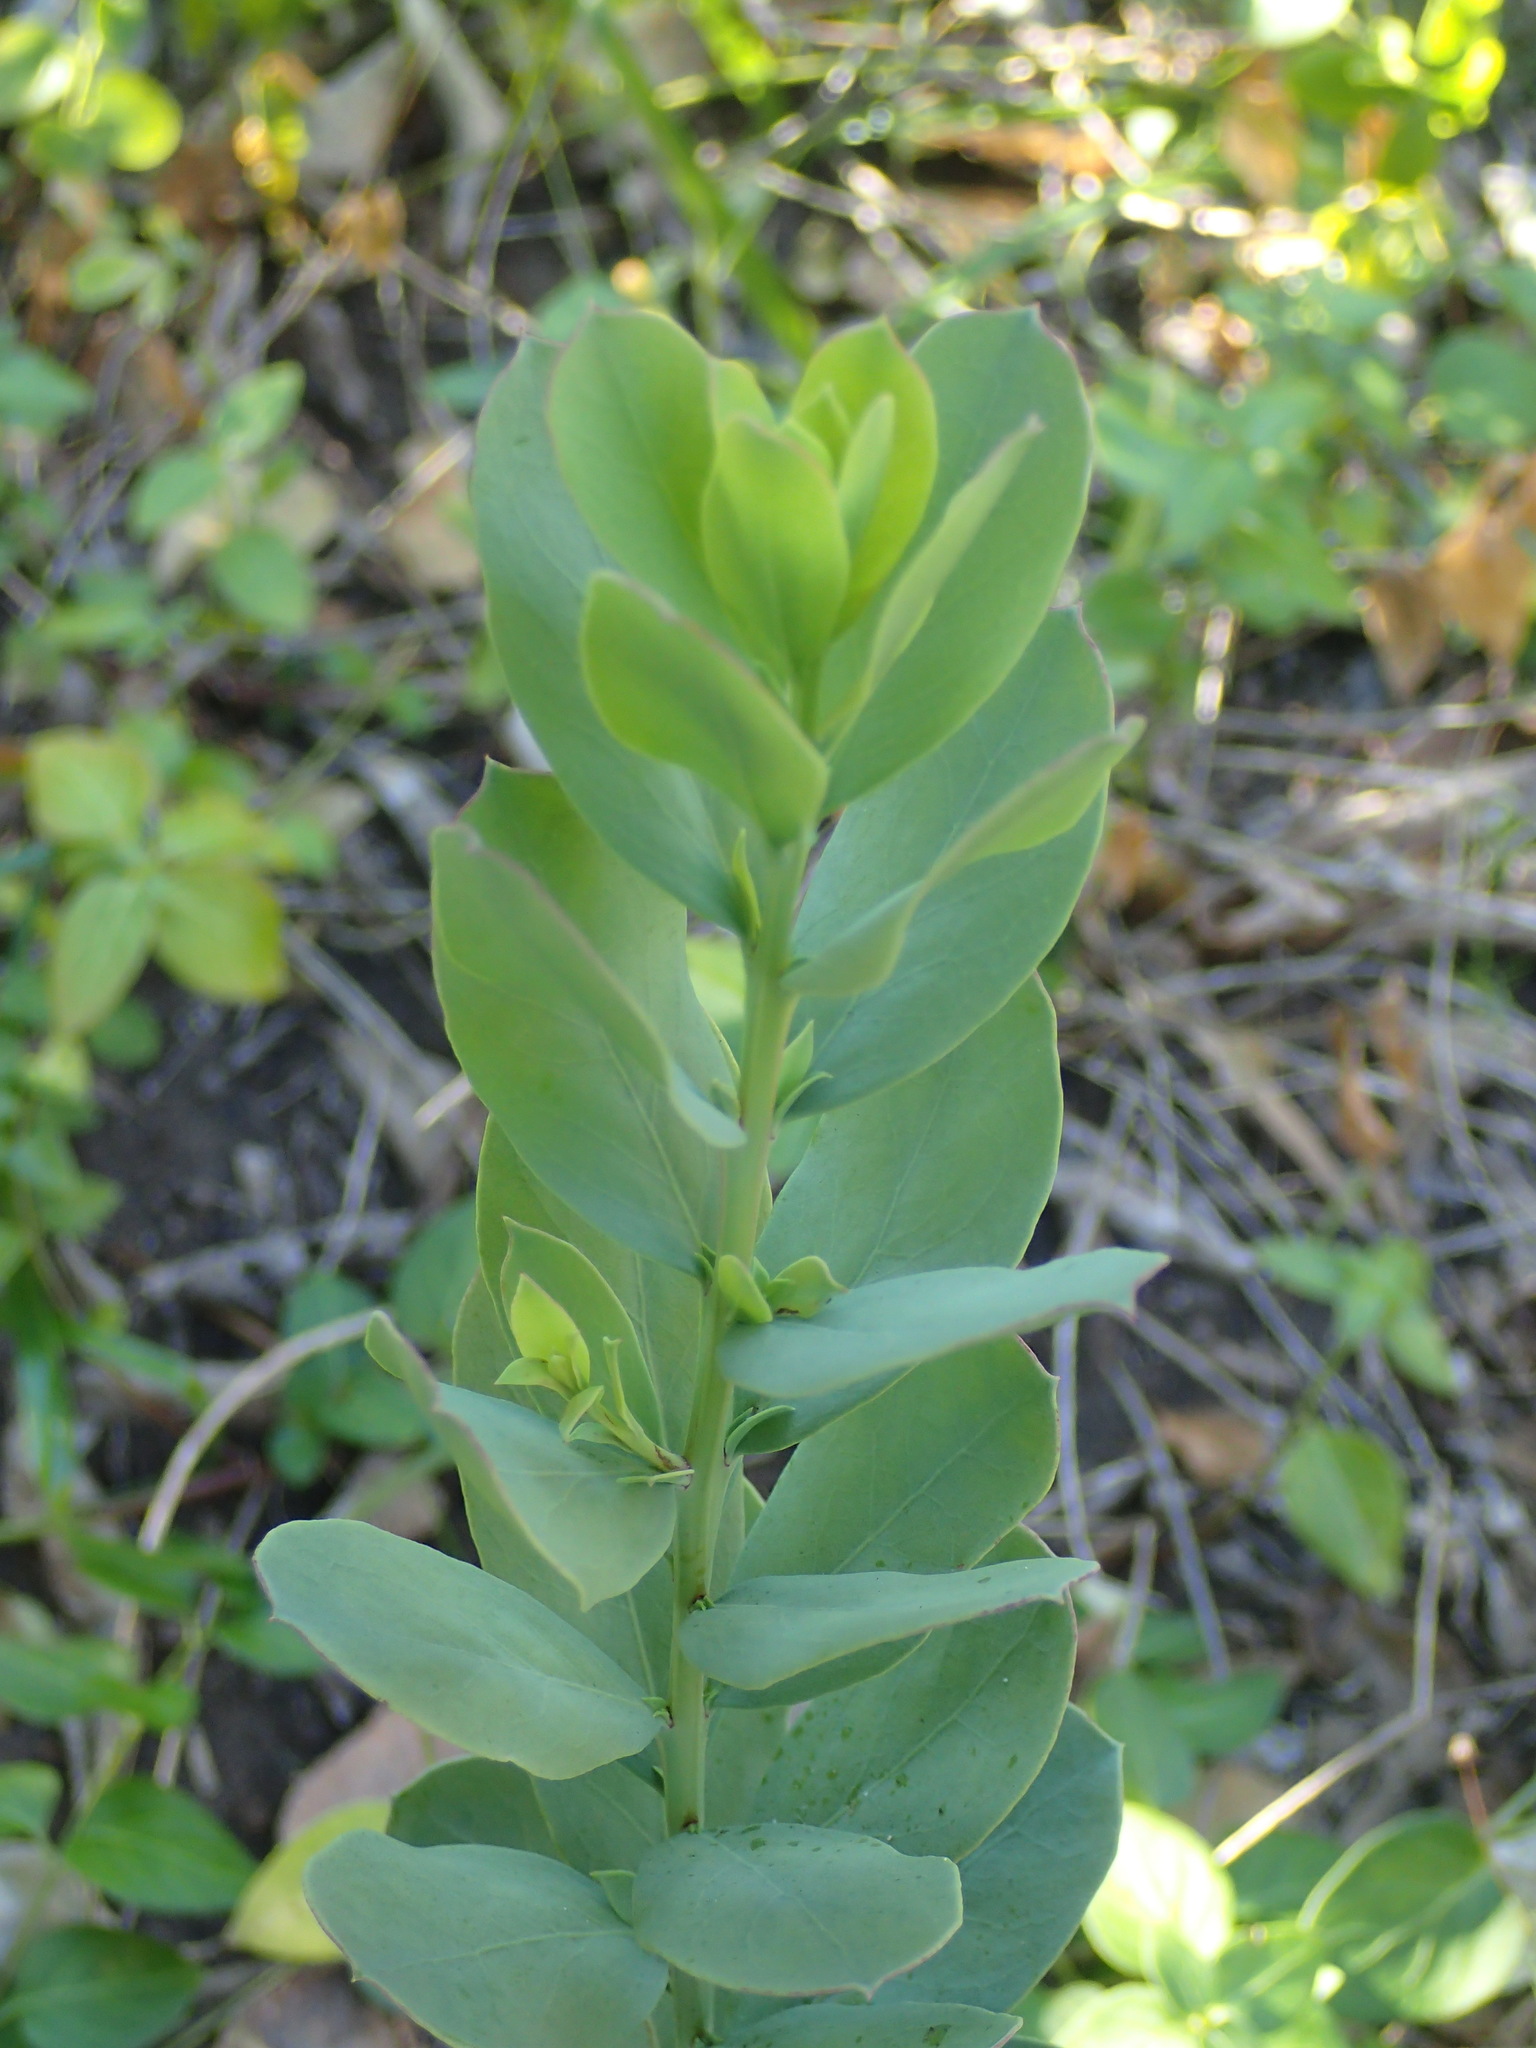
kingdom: Plantae
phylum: Tracheophyta
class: Magnoliopsida
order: Santalales
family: Santalaceae
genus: Osyris
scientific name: Osyris compressa
